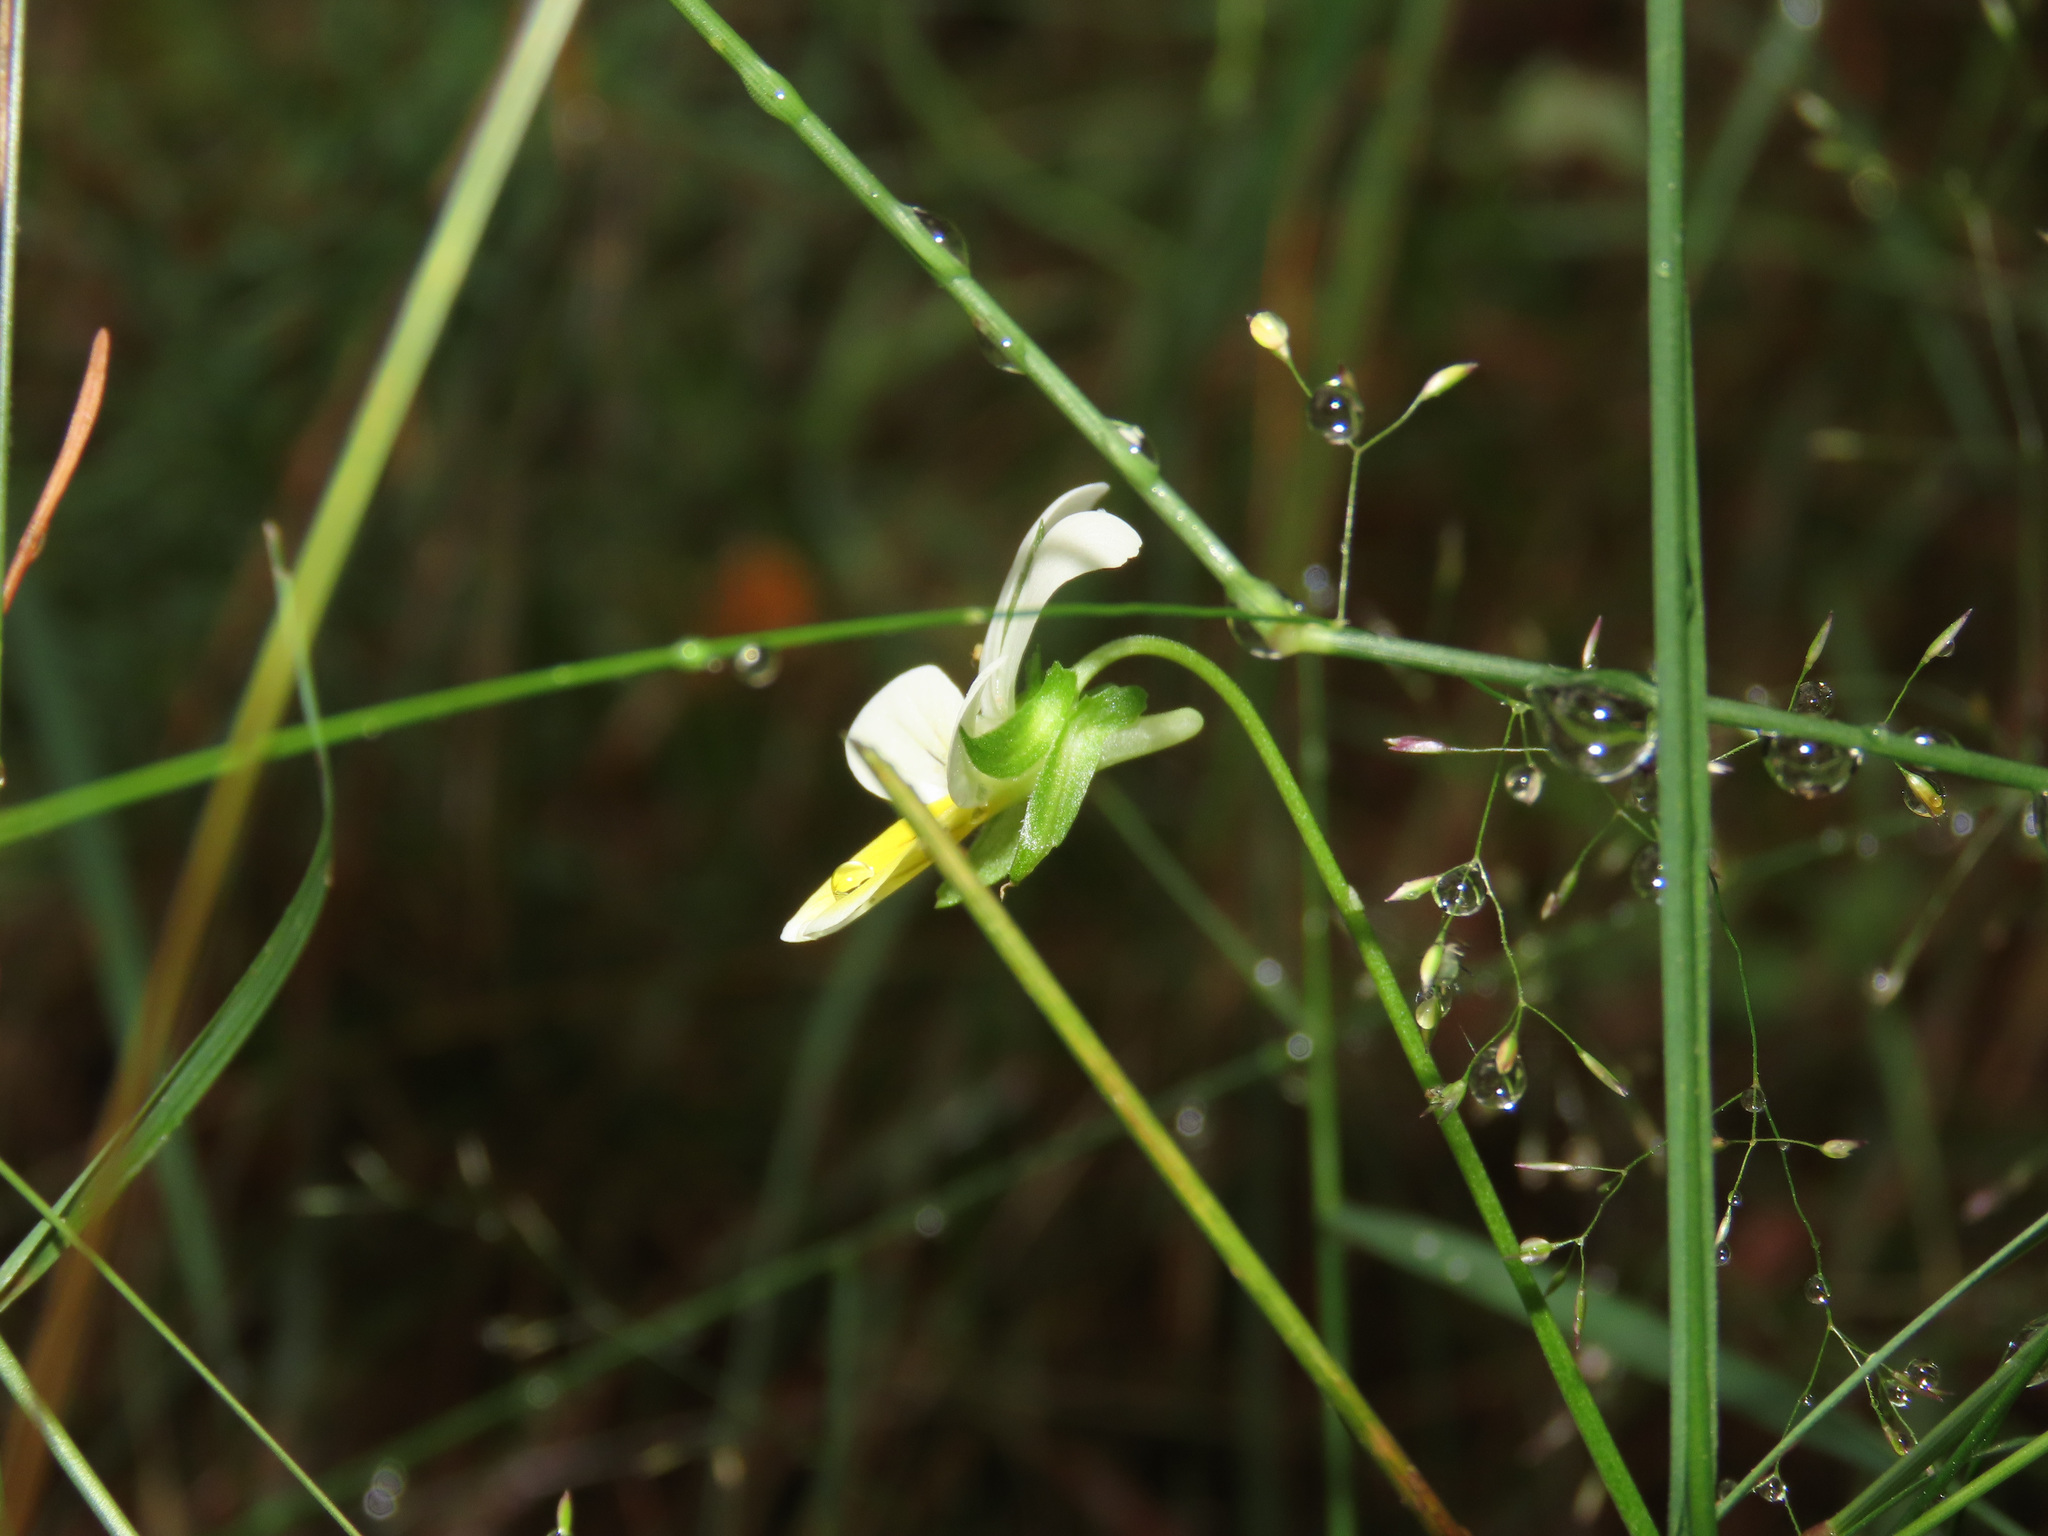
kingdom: Plantae
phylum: Tracheophyta
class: Magnoliopsida
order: Malpighiales
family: Violaceae
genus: Viola
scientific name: Viola tricolor
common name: Pansy
